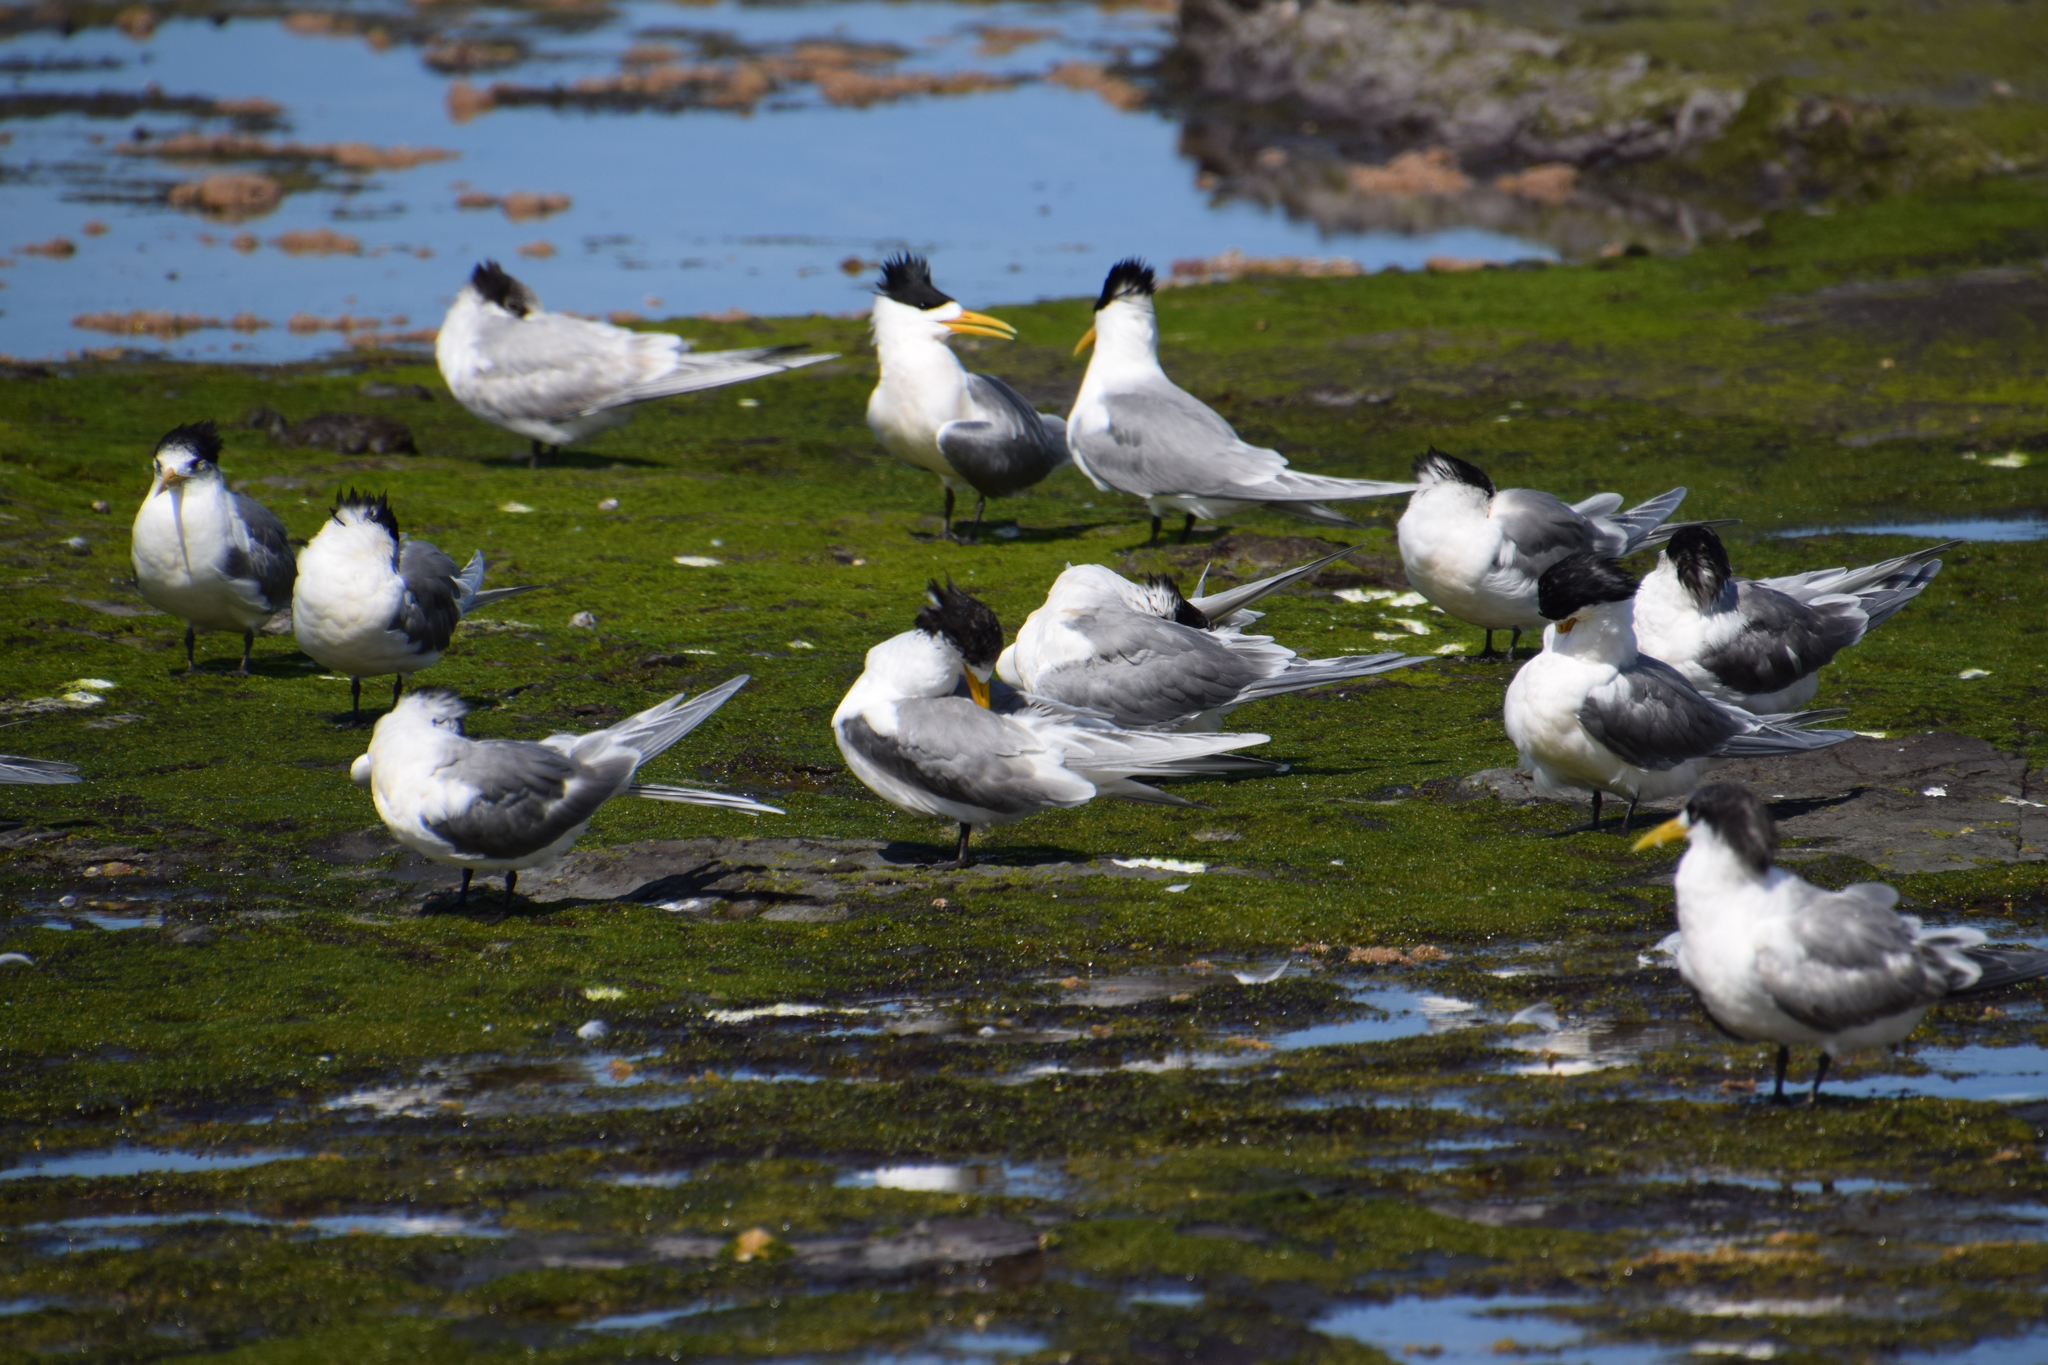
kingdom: Animalia
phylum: Chordata
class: Aves
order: Charadriiformes
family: Laridae
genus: Thalasseus
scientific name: Thalasseus bergii
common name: Greater crested tern
